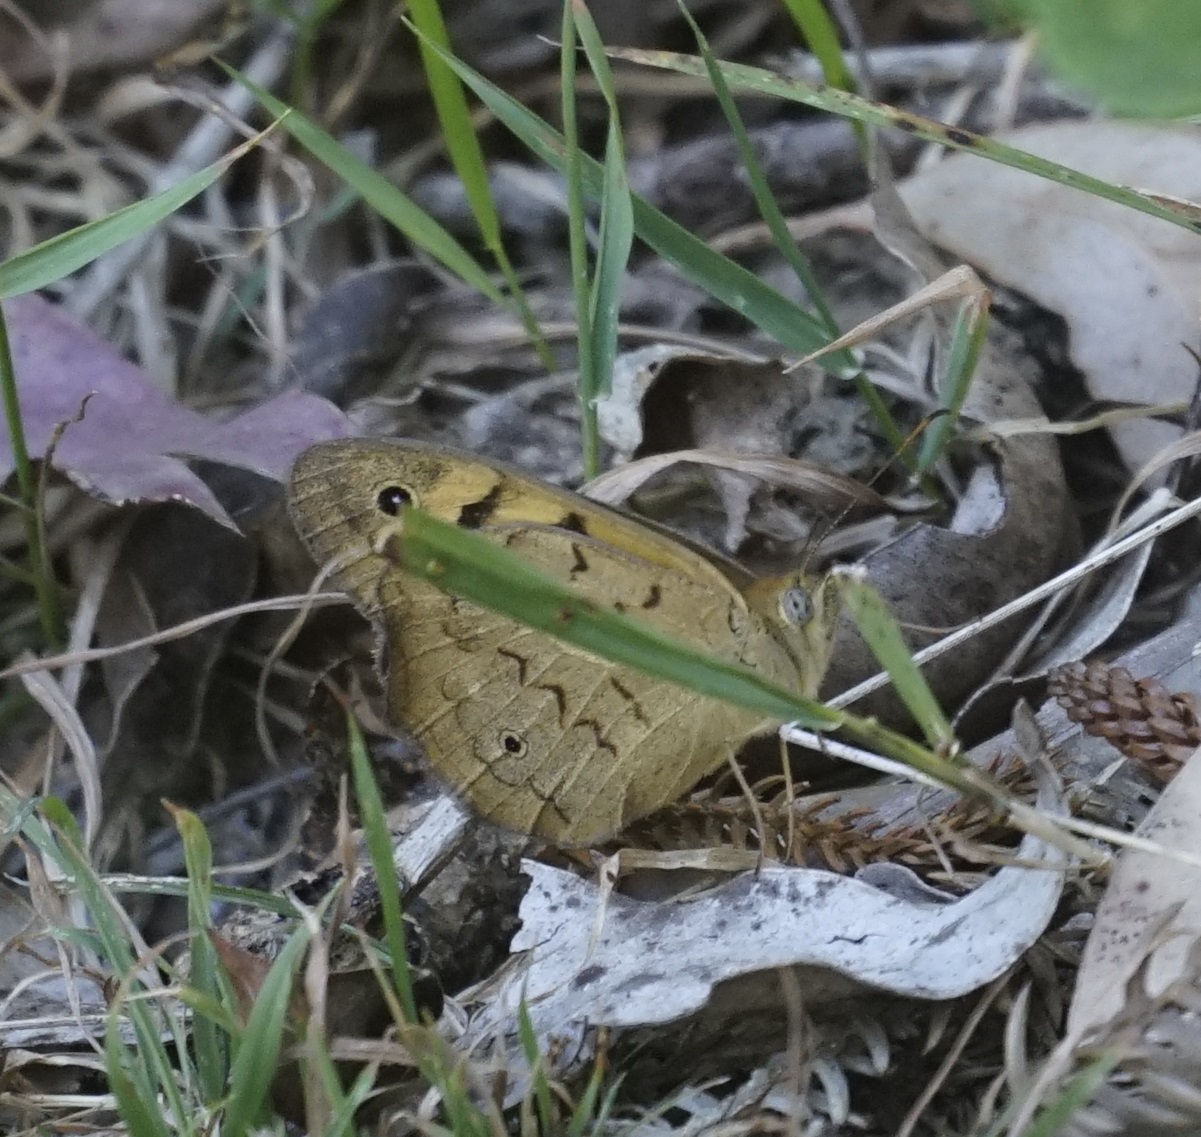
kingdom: Animalia
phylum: Arthropoda
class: Insecta
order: Lepidoptera
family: Nymphalidae
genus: Heteronympha
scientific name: Heteronympha merope
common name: Common brown
